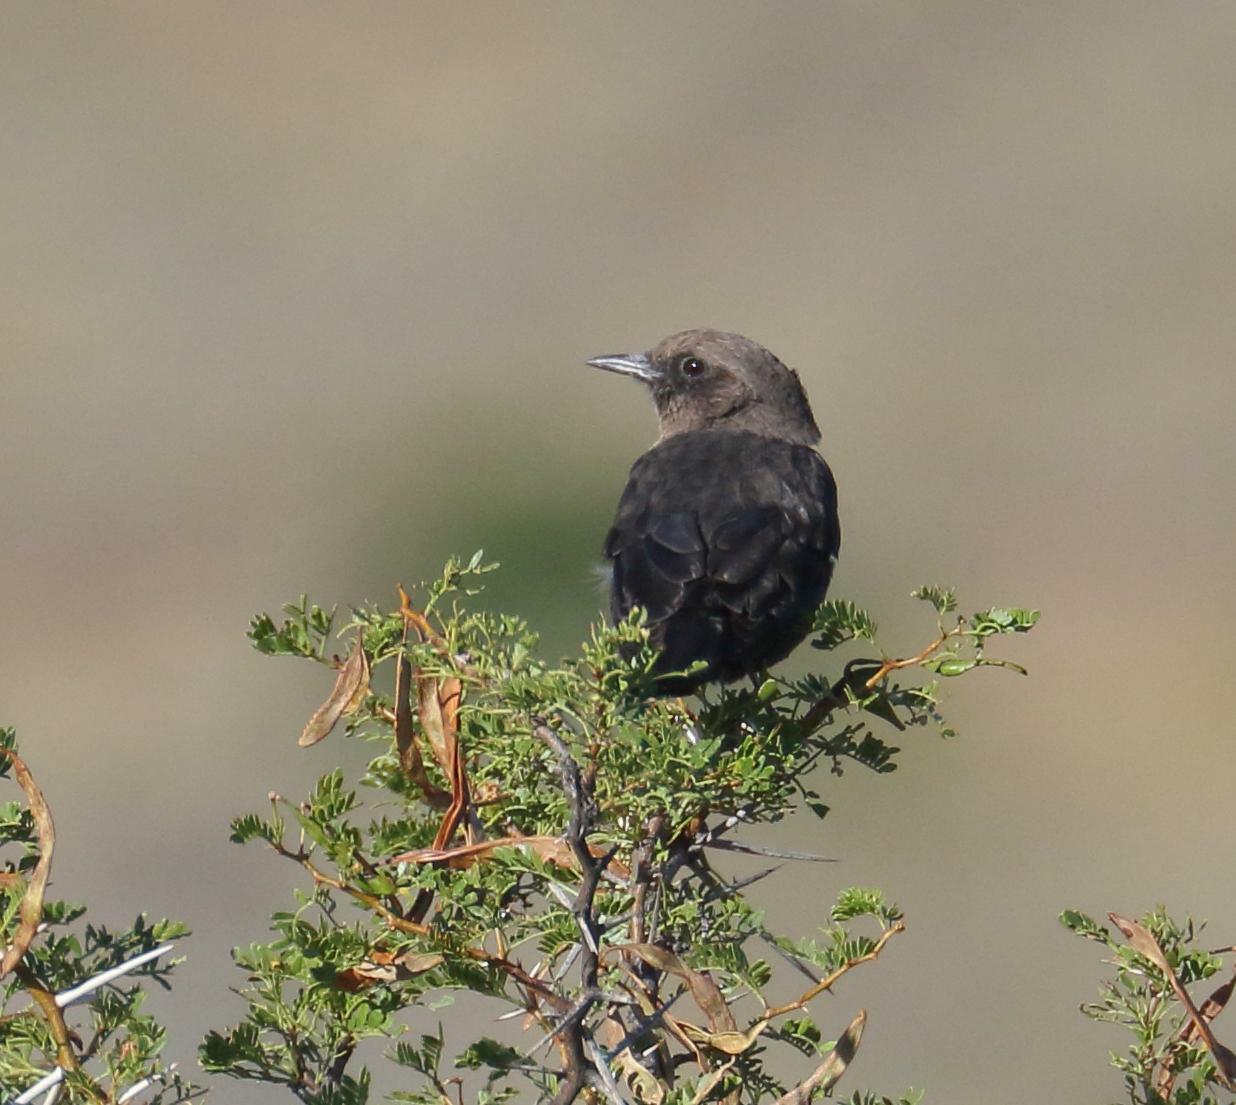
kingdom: Animalia
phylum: Chordata
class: Aves
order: Passeriformes
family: Muscicapidae
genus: Myrmecocichla
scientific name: Myrmecocichla formicivora
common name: Ant-eating chat
